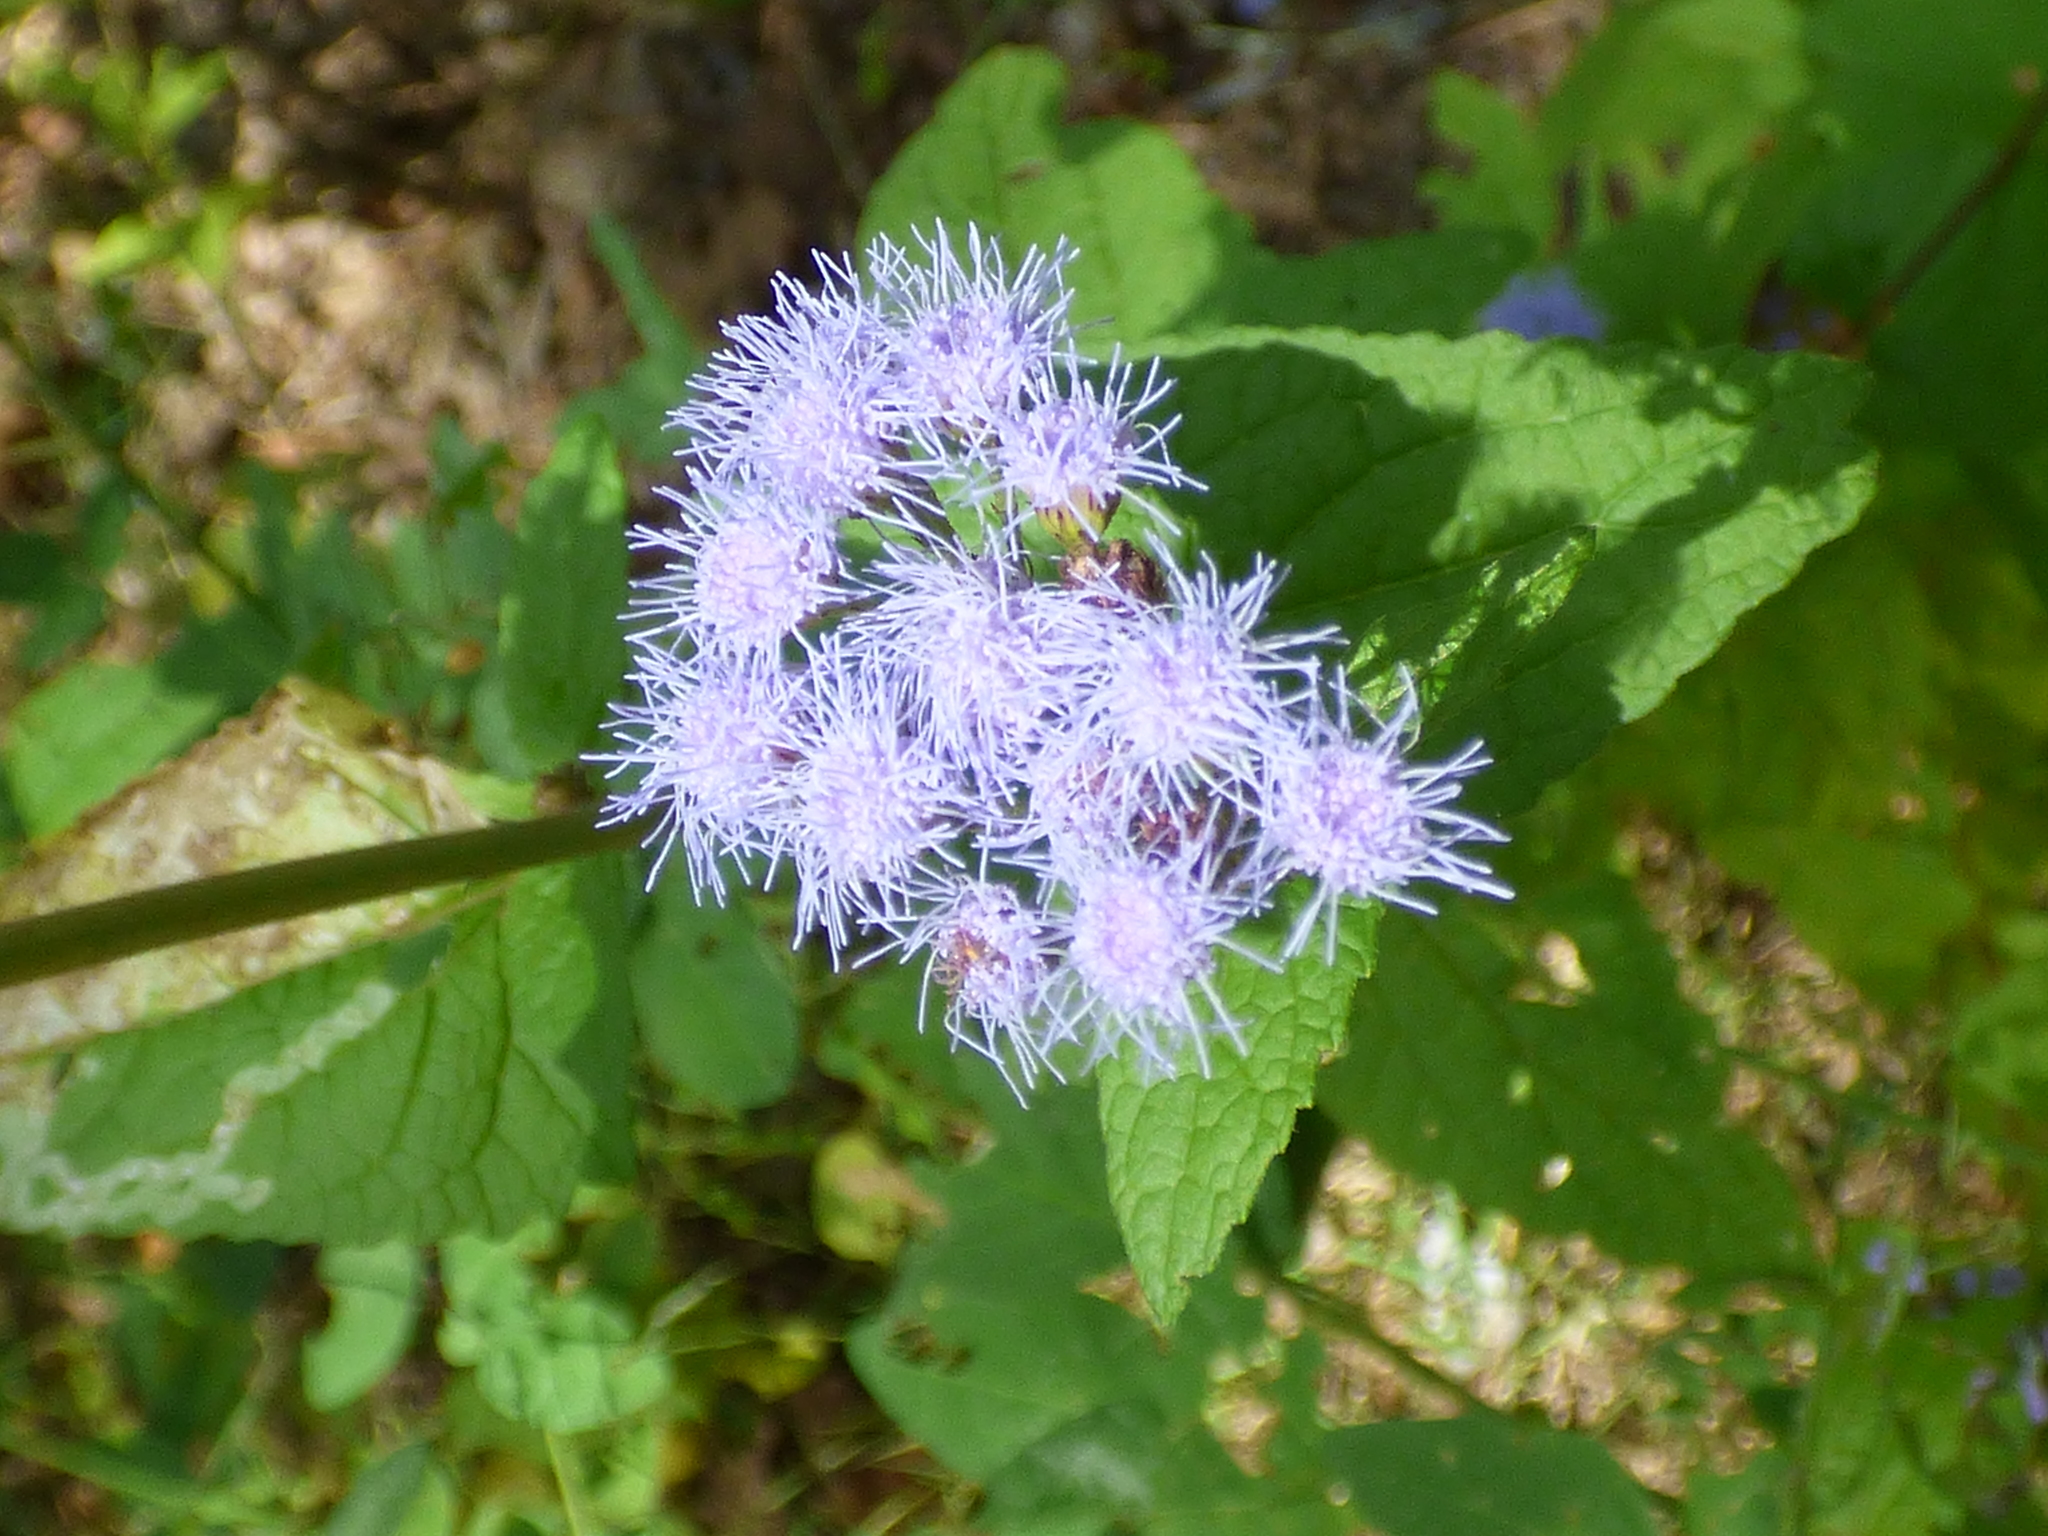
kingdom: Plantae
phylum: Tracheophyta
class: Magnoliopsida
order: Asterales
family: Asteraceae
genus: Conoclinium
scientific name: Conoclinium coelestinum
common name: Blue mistflower
